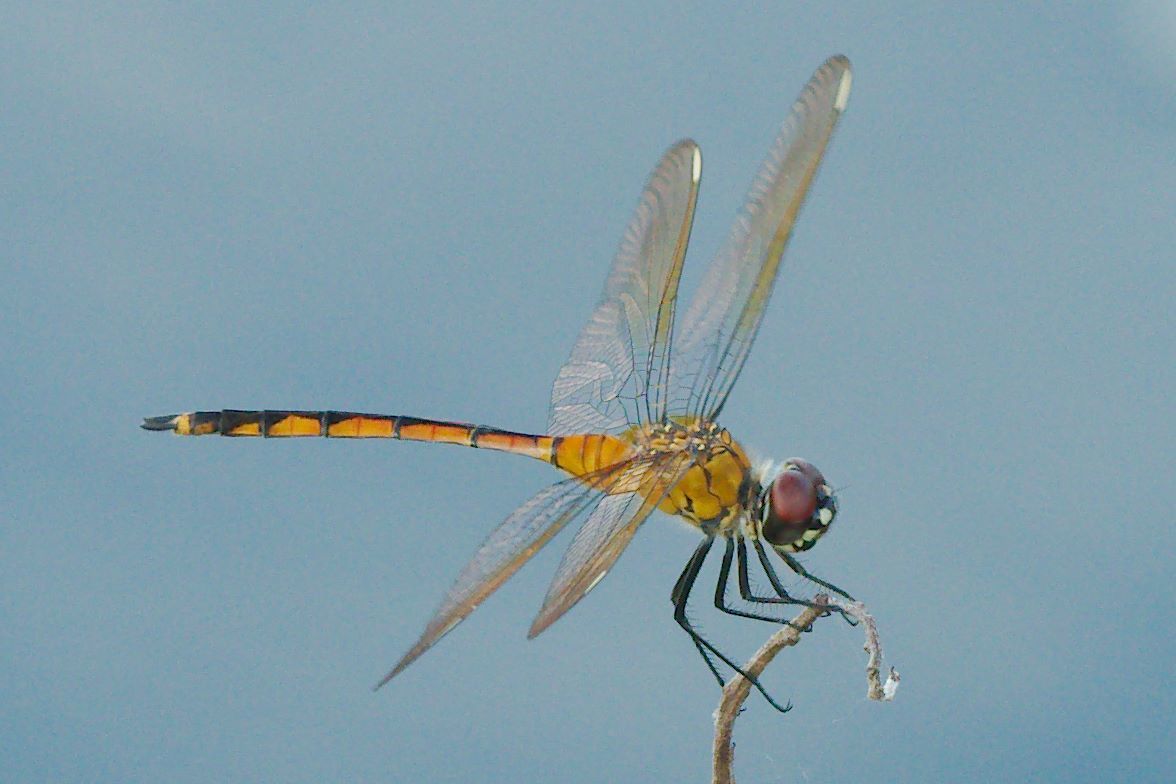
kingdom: Animalia
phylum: Arthropoda
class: Insecta
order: Odonata
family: Libellulidae
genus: Brachymesia
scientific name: Brachymesia gravida
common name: Four-spotted pennant
